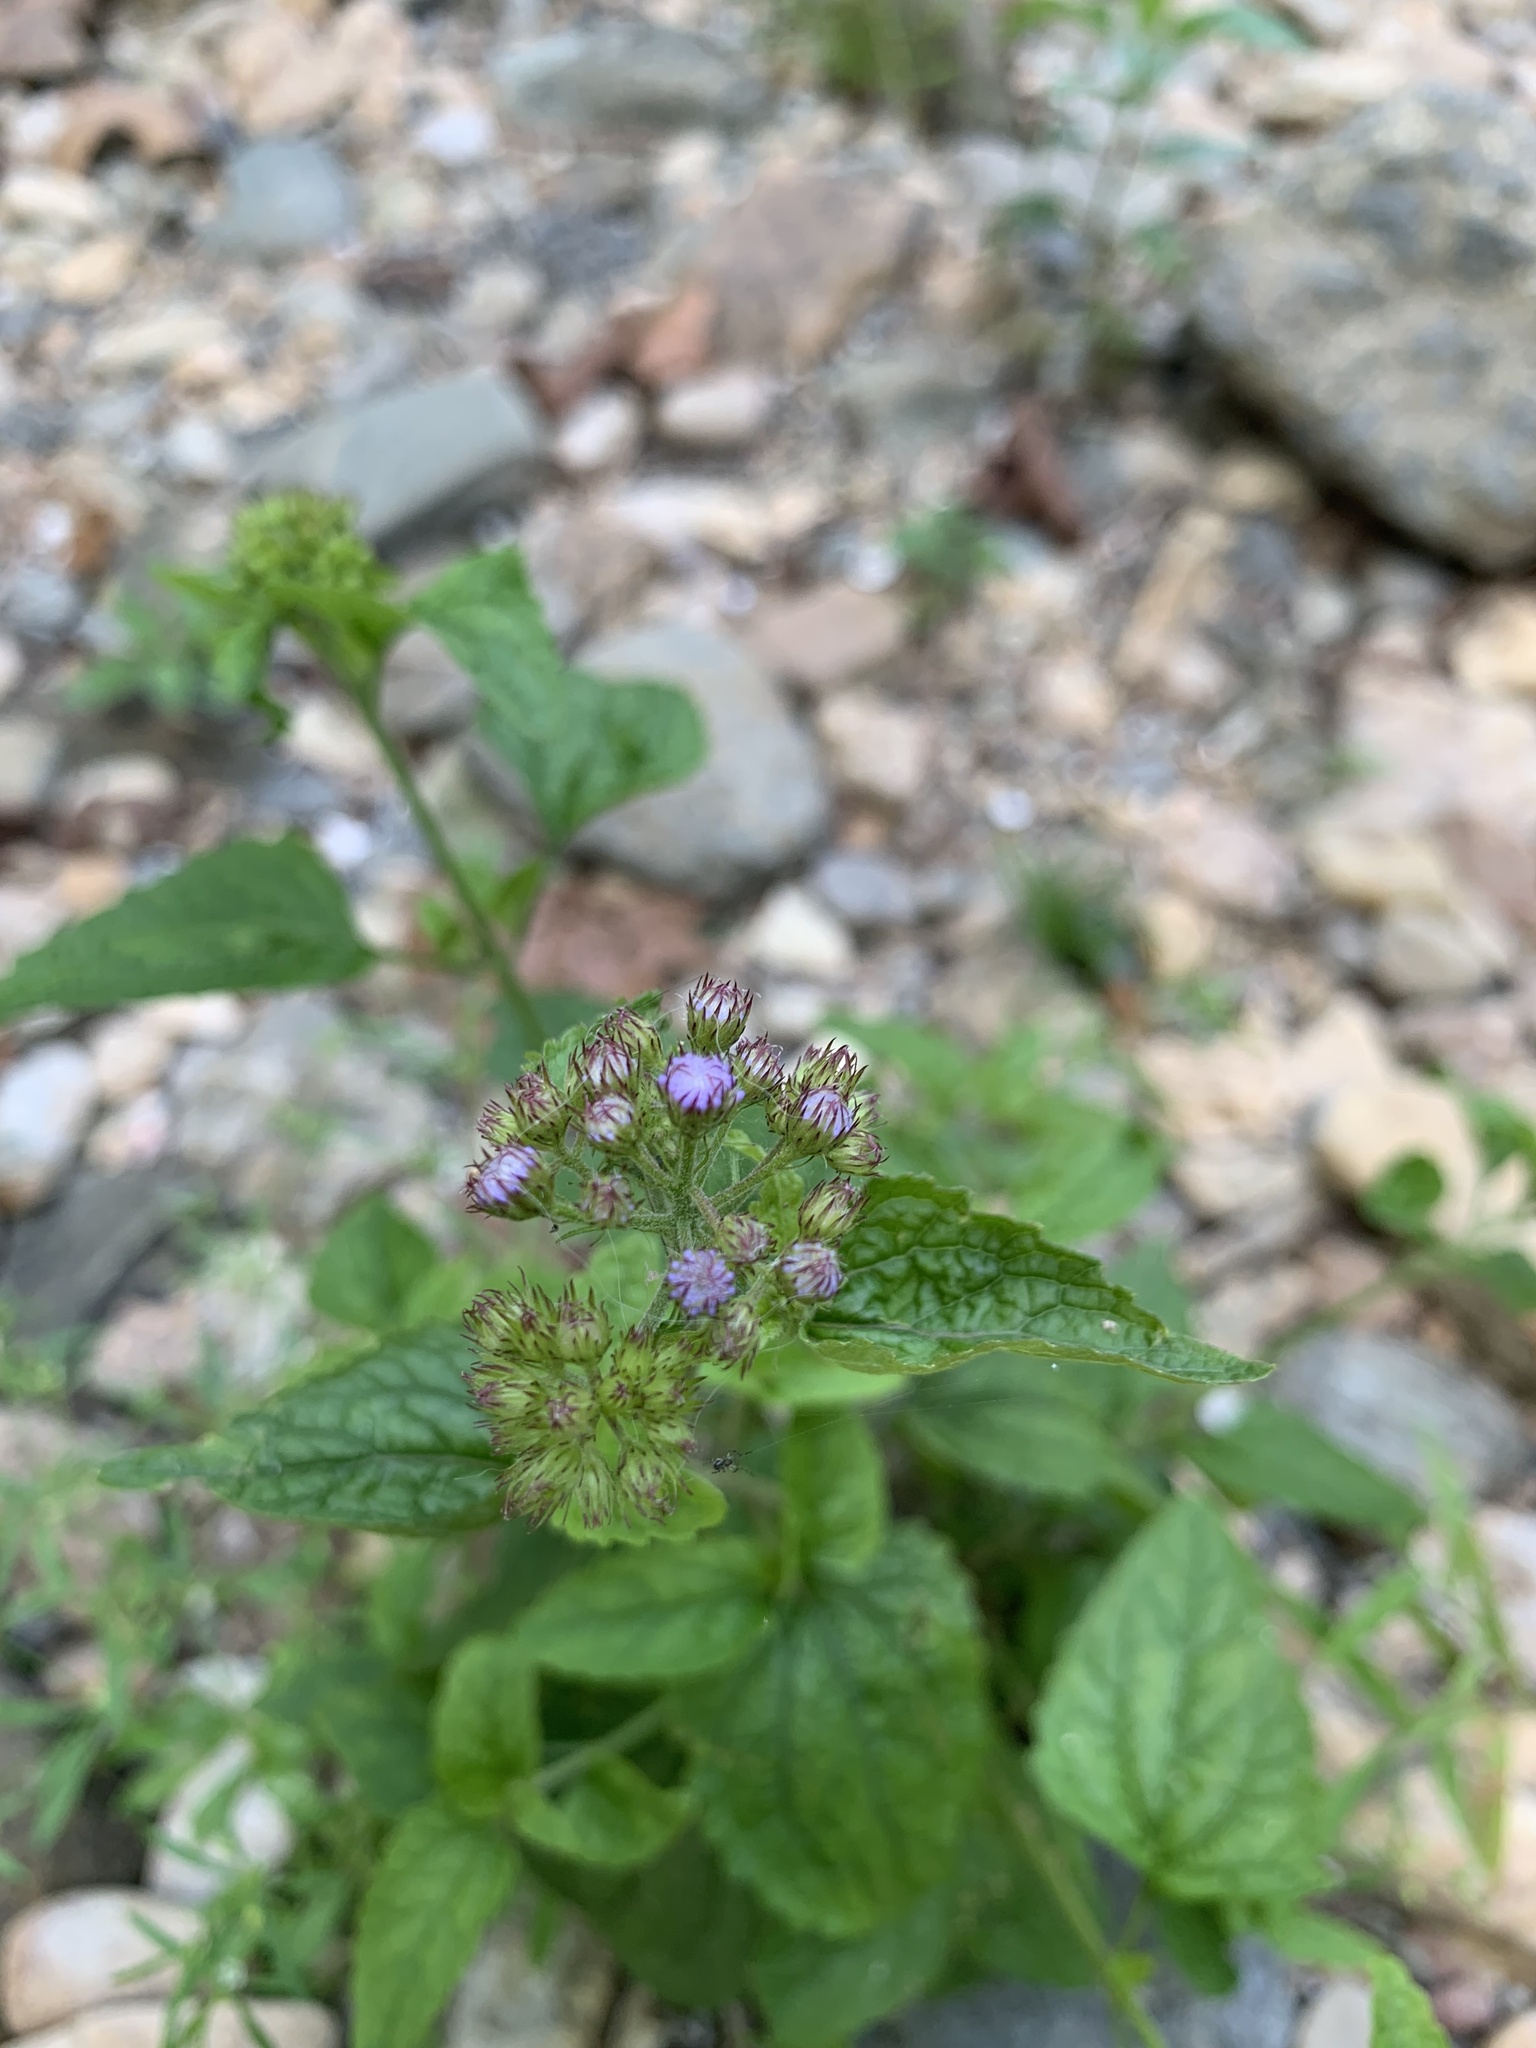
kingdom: Plantae
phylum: Tracheophyta
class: Magnoliopsida
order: Asterales
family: Asteraceae
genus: Conoclinium
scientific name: Conoclinium coelestinum
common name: Blue mistflower
